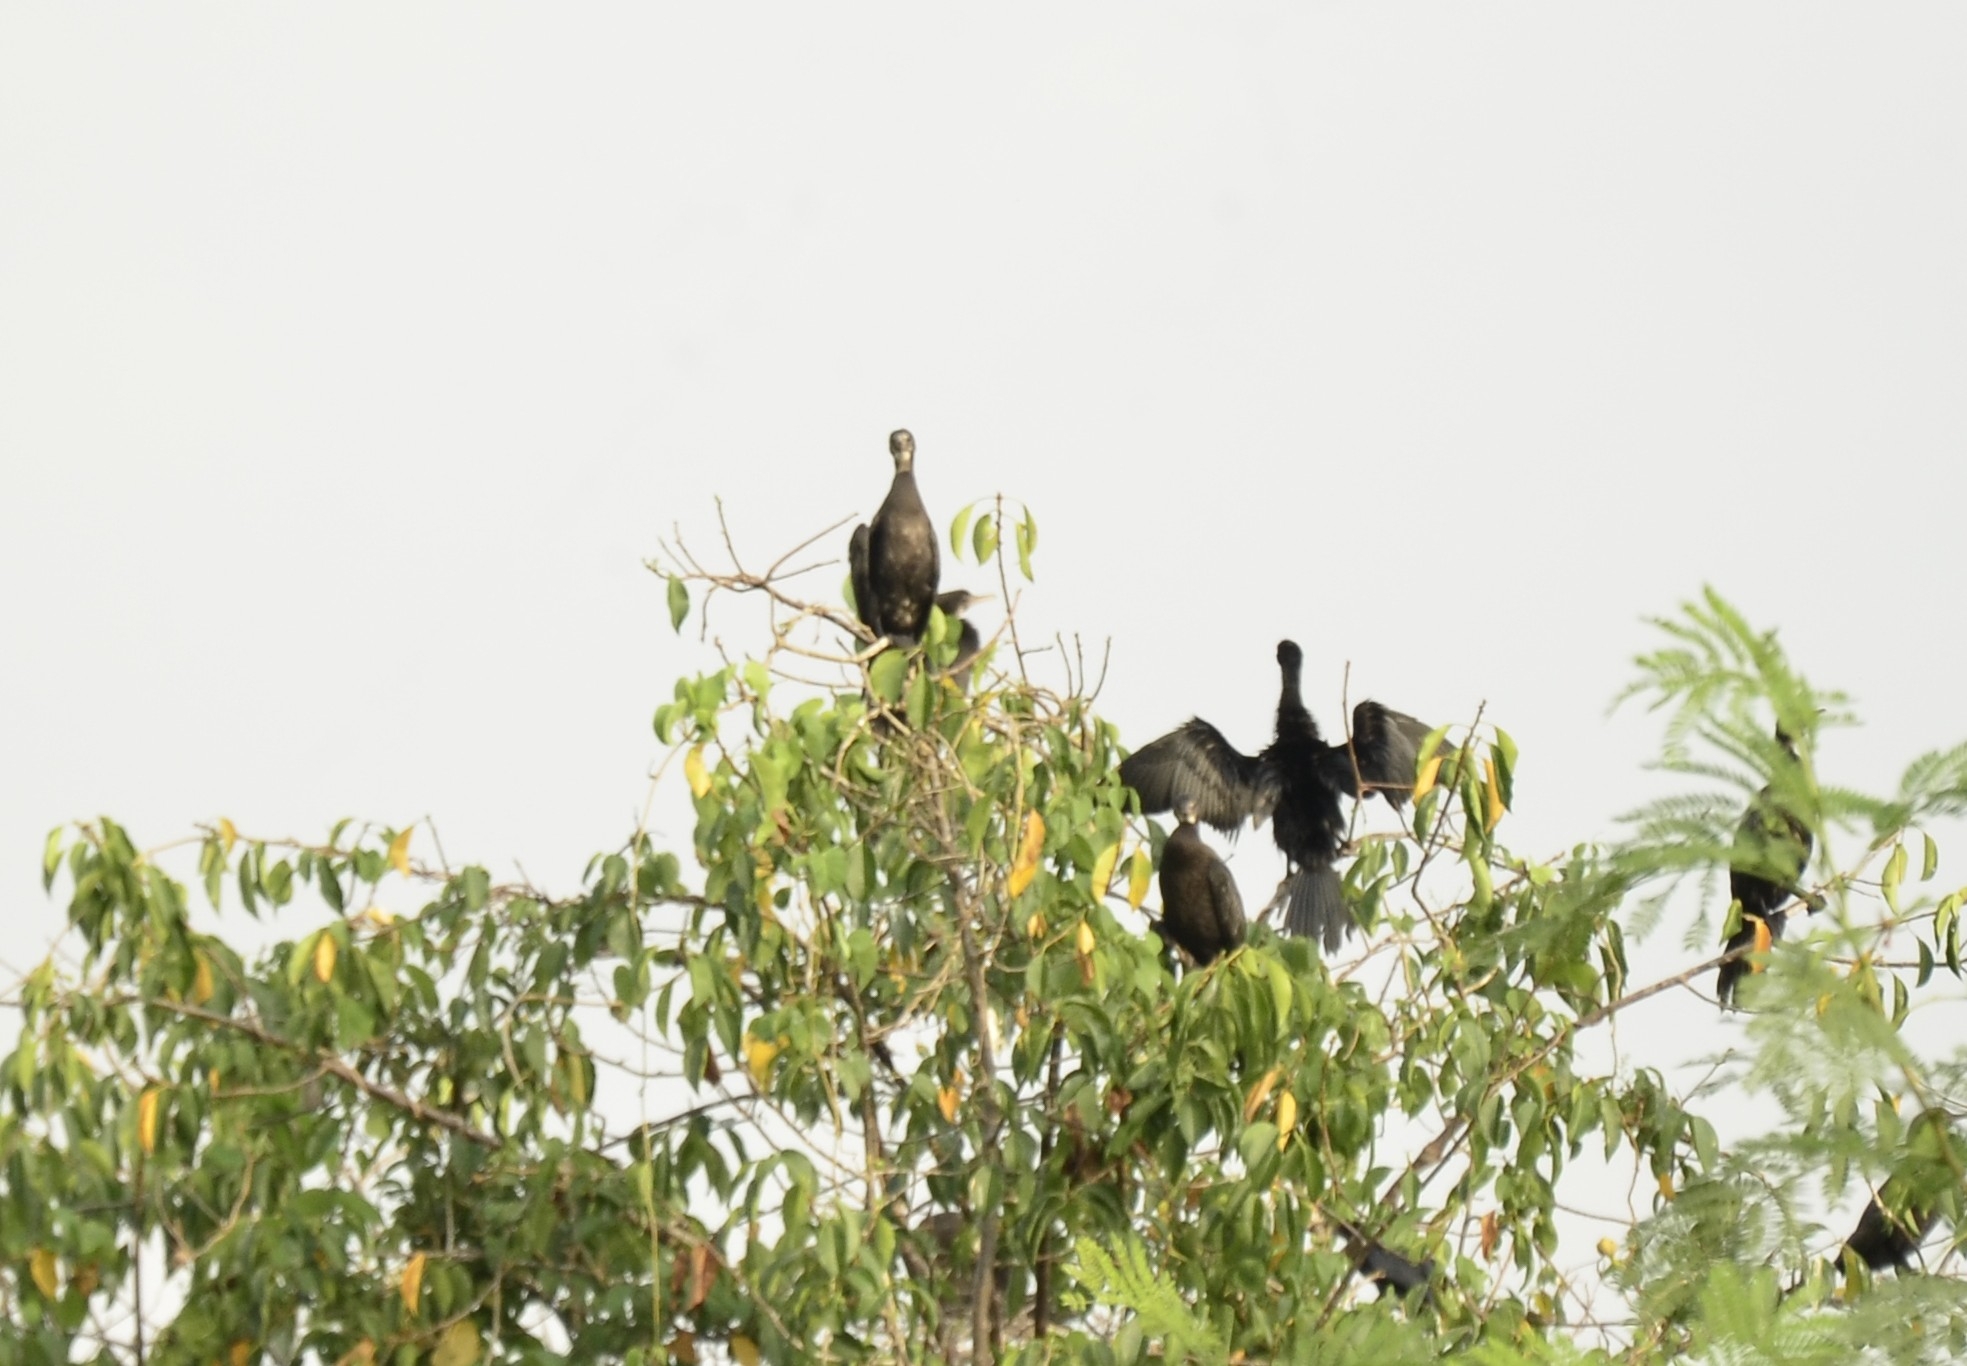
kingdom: Animalia
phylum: Chordata
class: Aves
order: Suliformes
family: Phalacrocoracidae
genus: Phalacrocorax
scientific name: Phalacrocorax fuscicollis
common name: Indian cormorant
